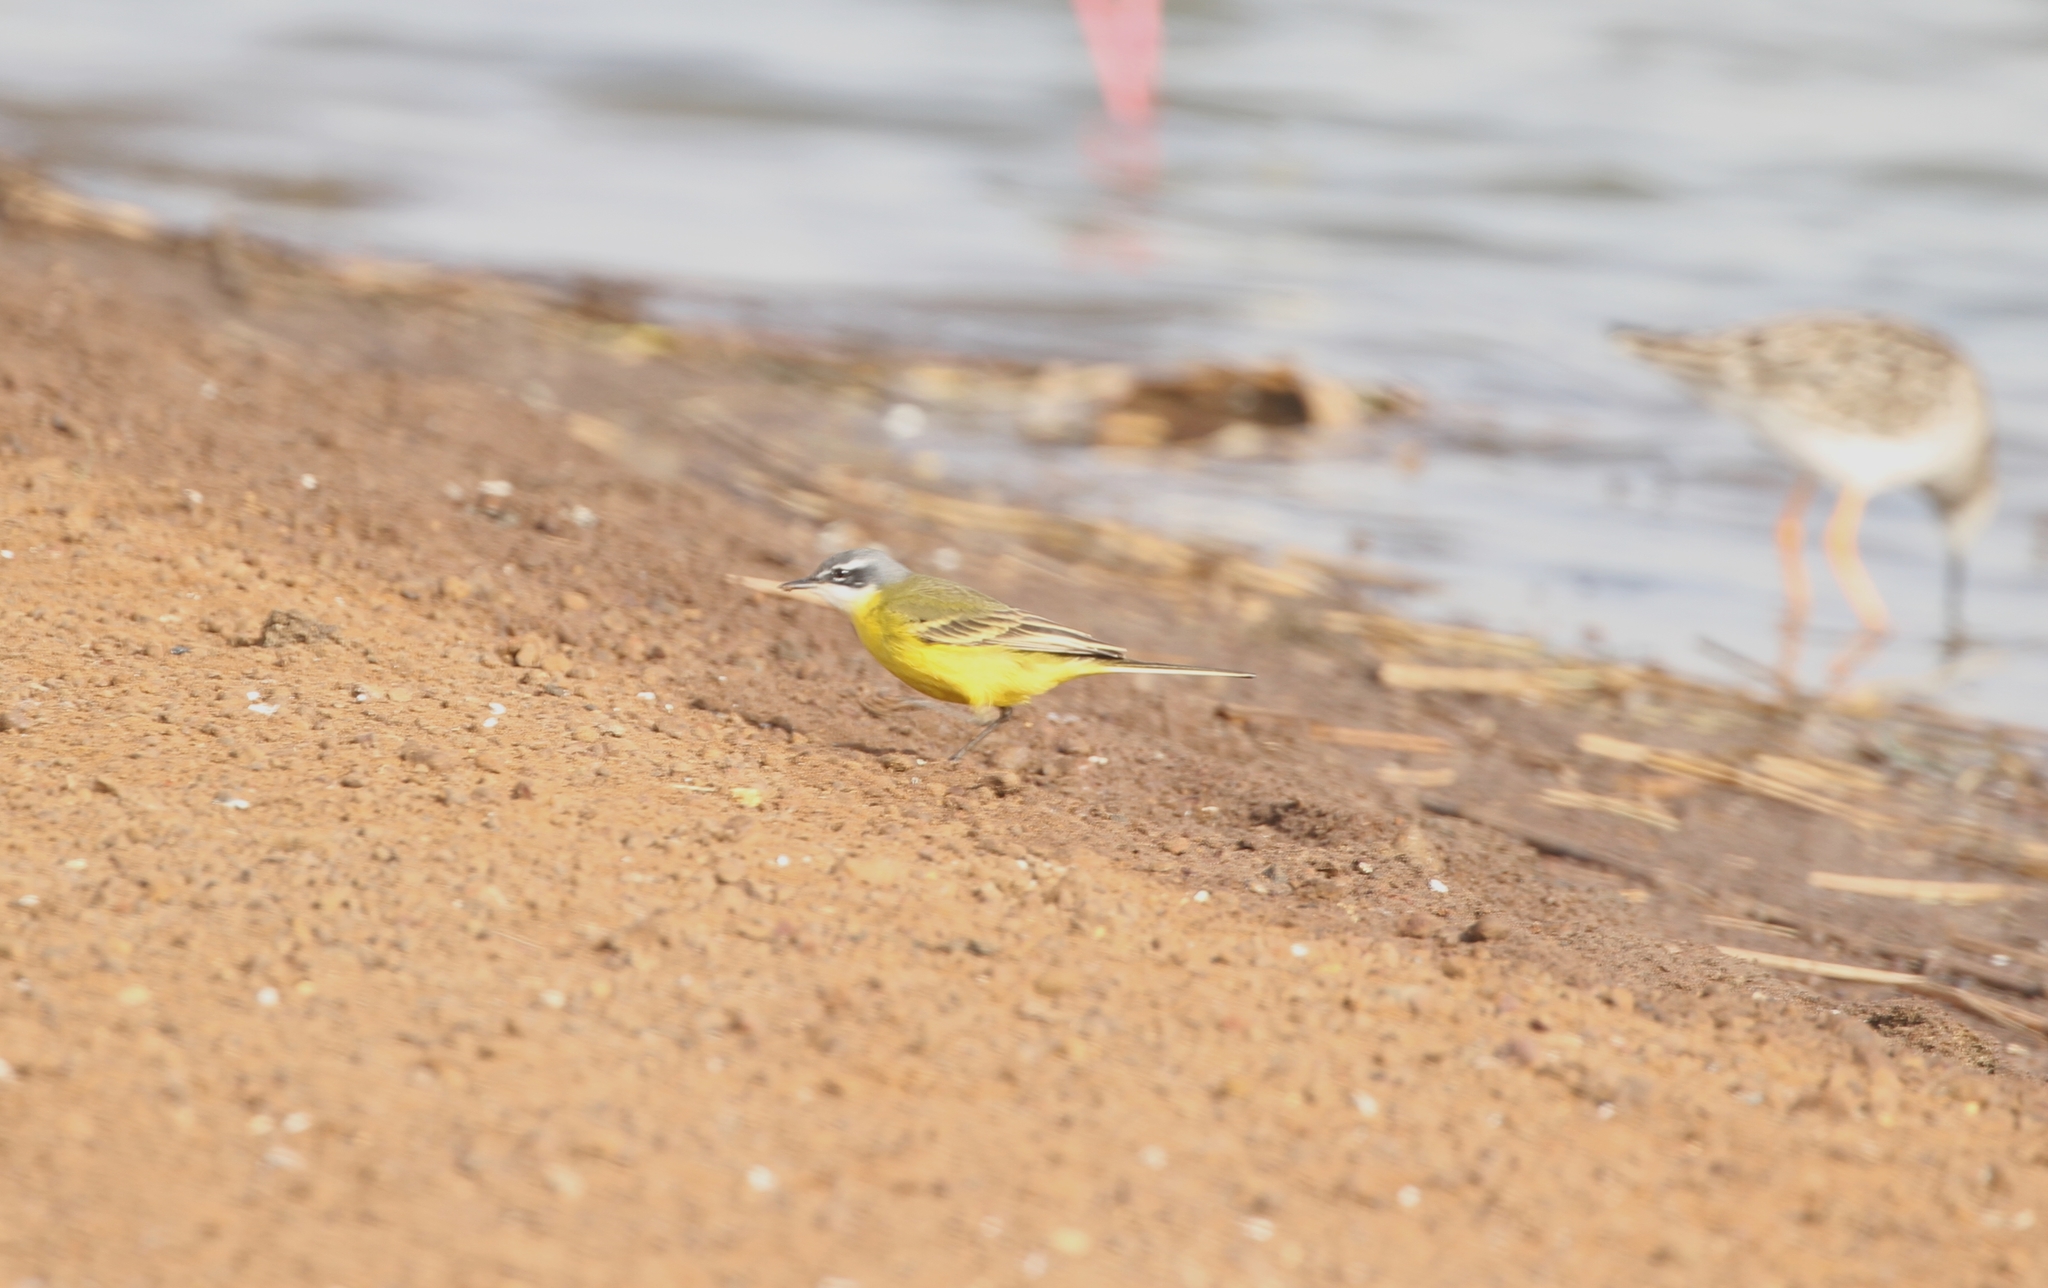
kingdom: Animalia
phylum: Chordata
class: Aves
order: Passeriformes
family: Motacillidae
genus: Motacilla
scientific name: Motacilla flava
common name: Western yellow wagtail
